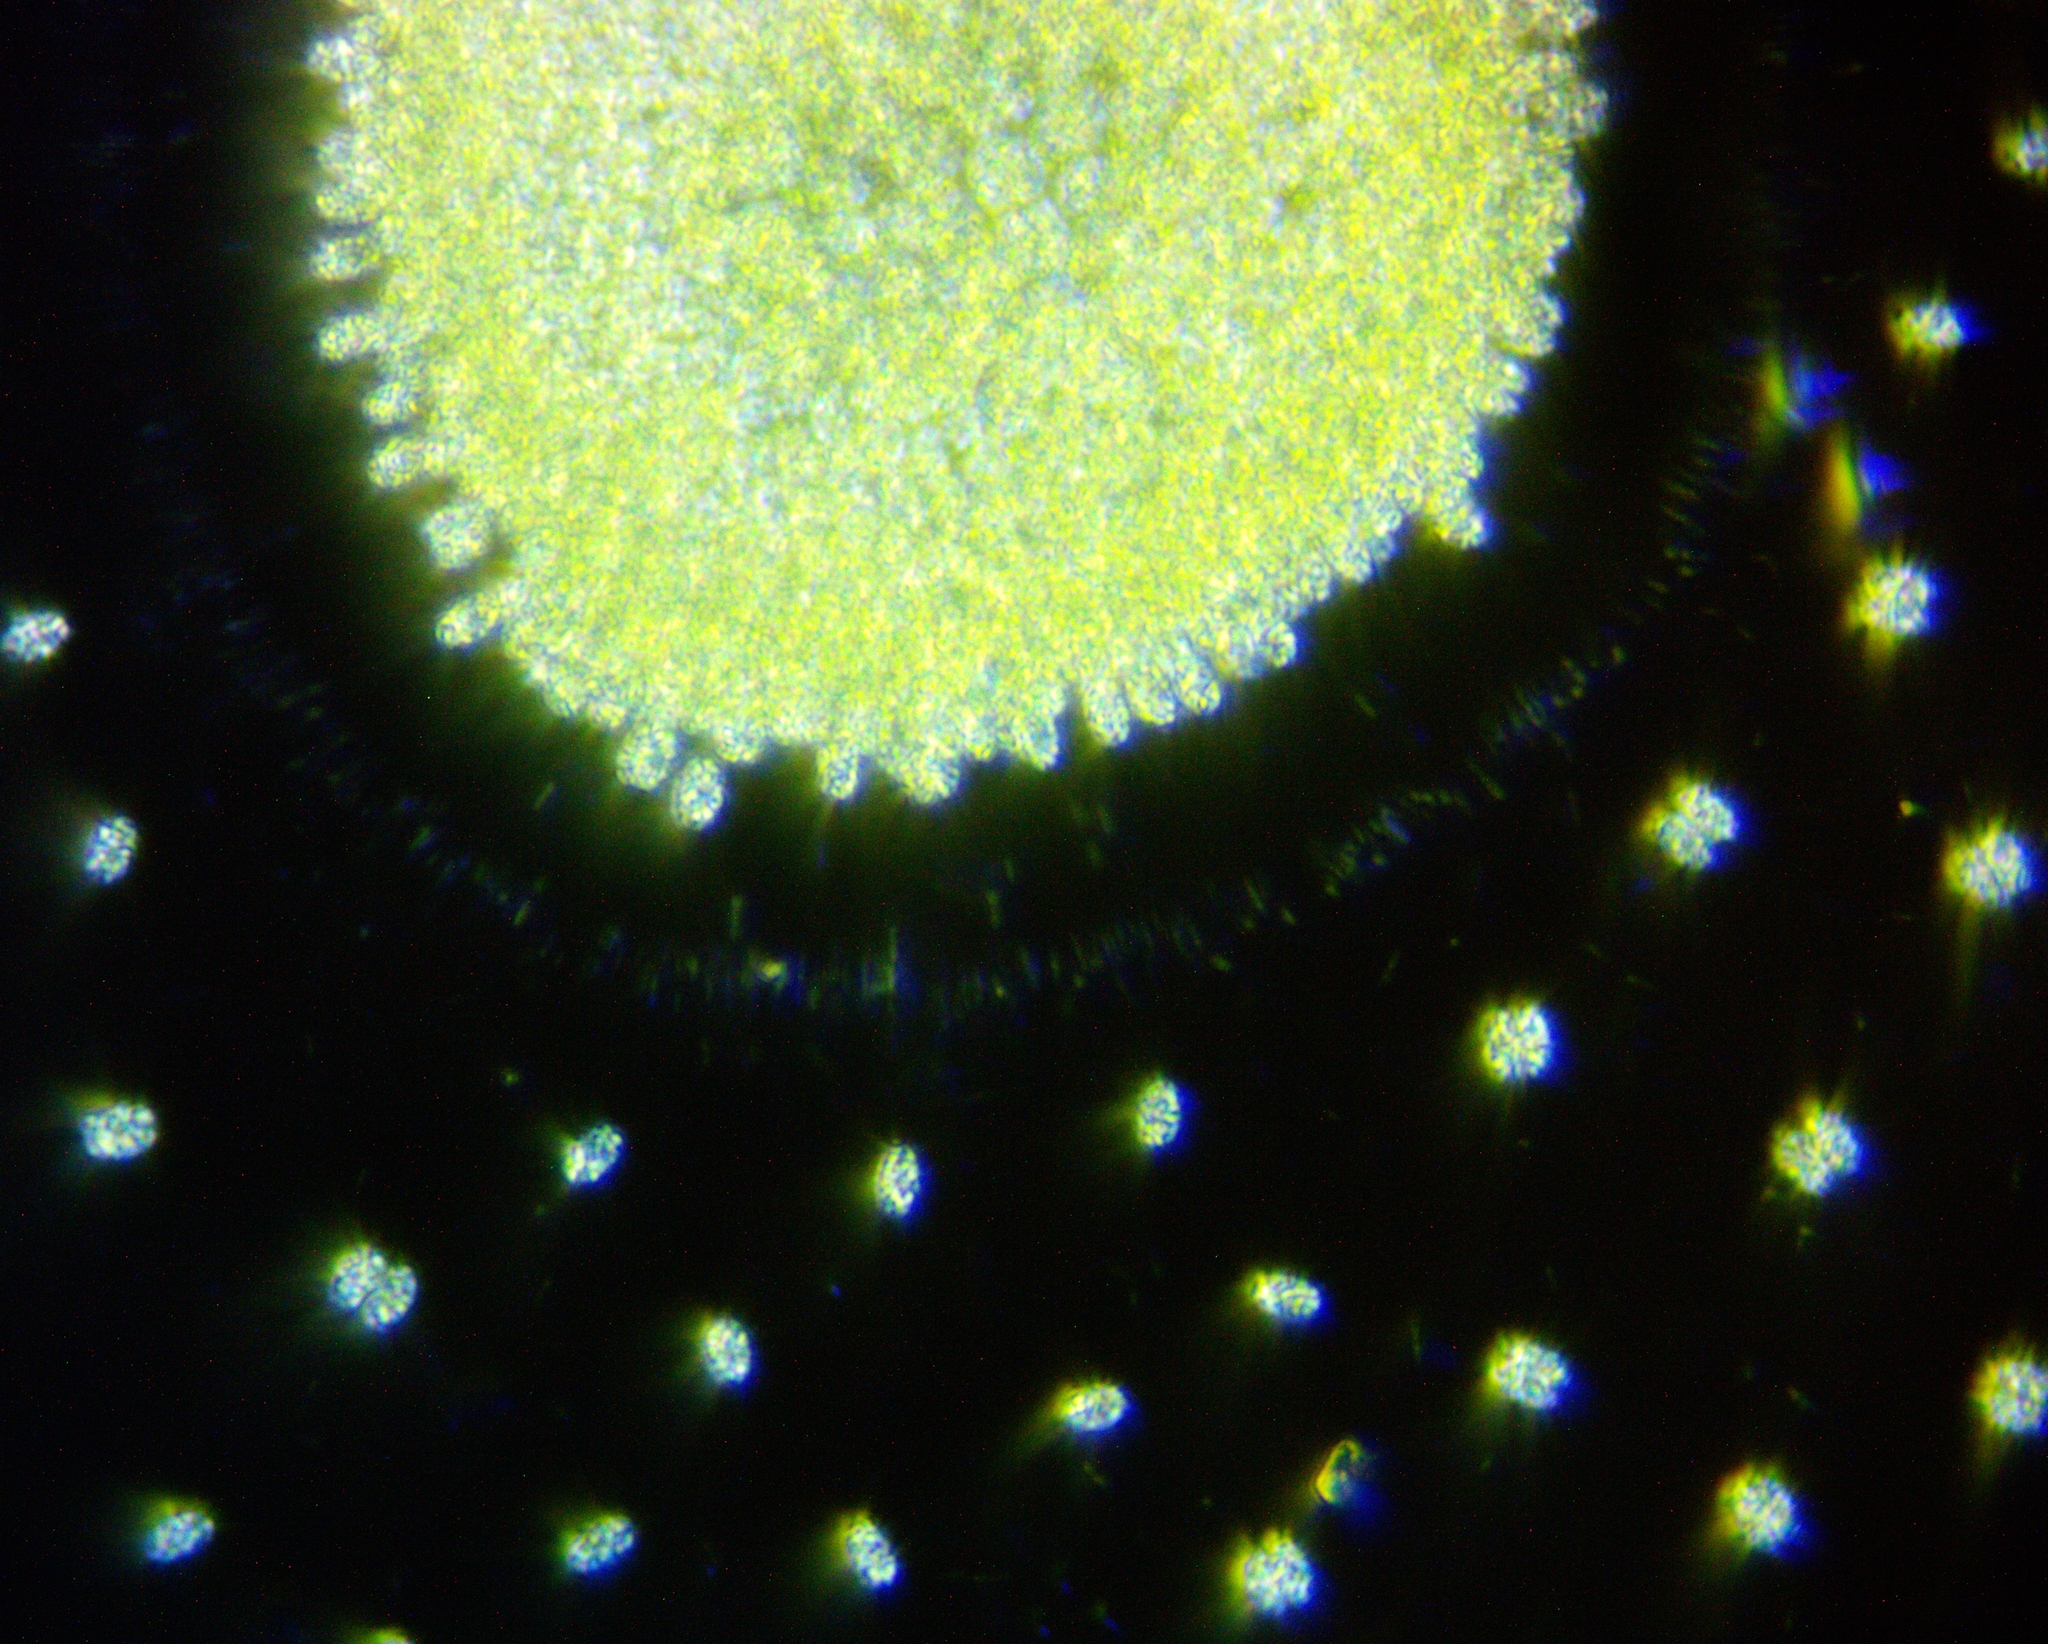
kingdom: Bacteria
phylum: Cyanobacteria
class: Cyanobacteriia
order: Synechococcales
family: Coelosphaeriaceae
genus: Woronichinia
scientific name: Woronichinia naegeliana
